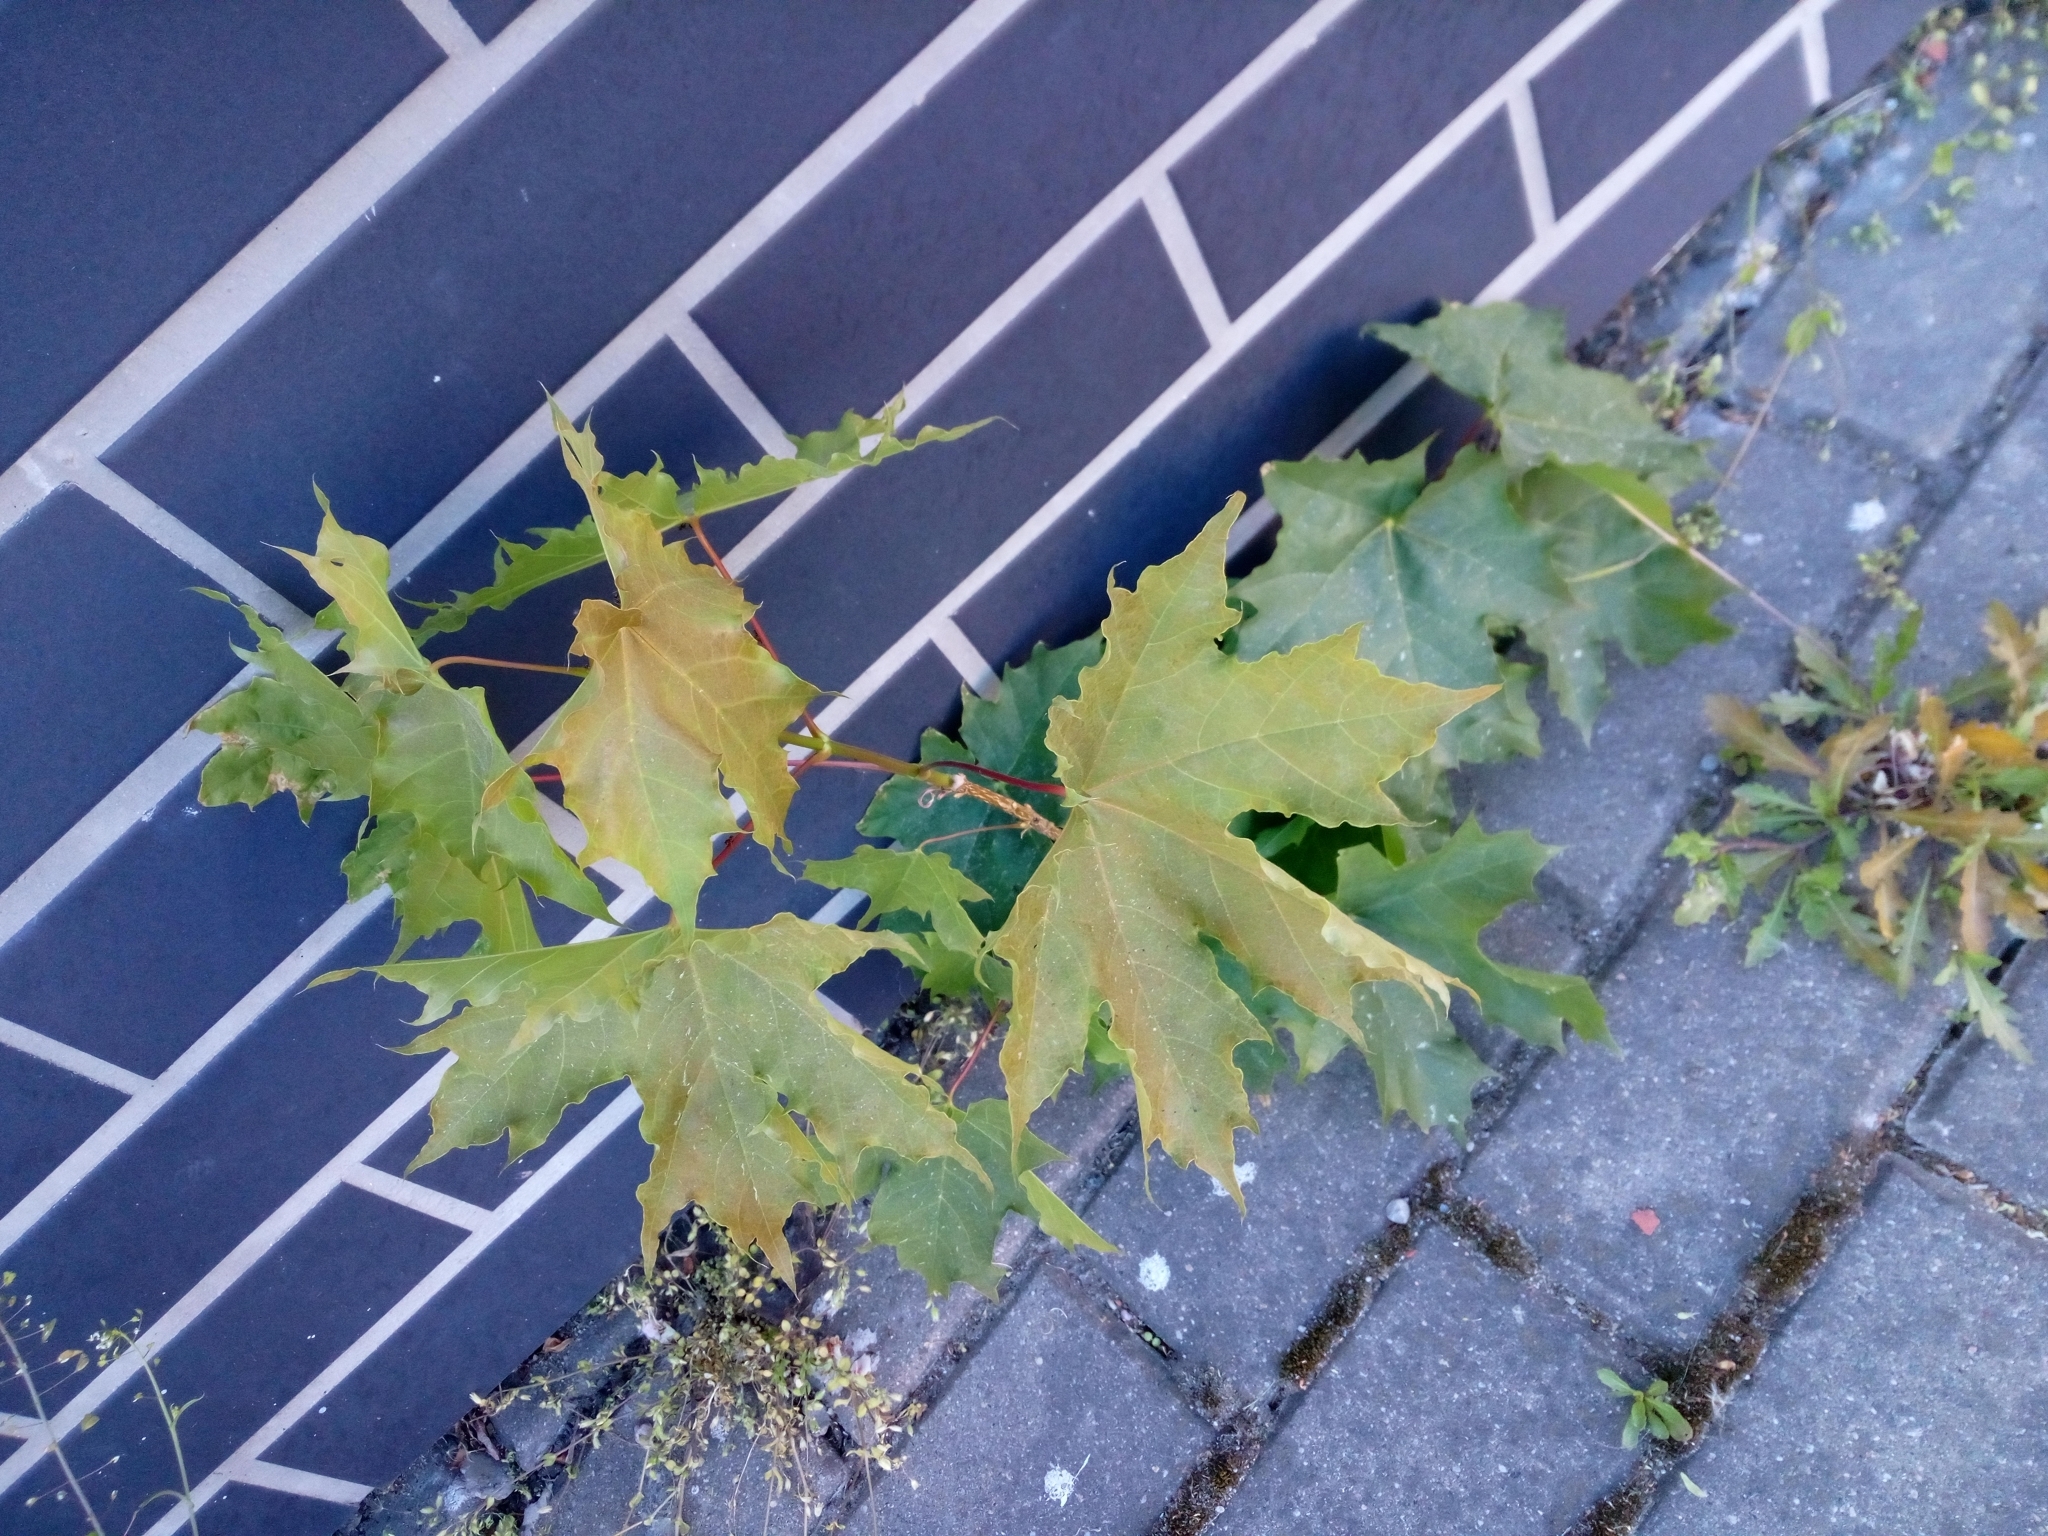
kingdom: Plantae
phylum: Tracheophyta
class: Magnoliopsida
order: Sapindales
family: Sapindaceae
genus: Acer
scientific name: Acer platanoides
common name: Norway maple
